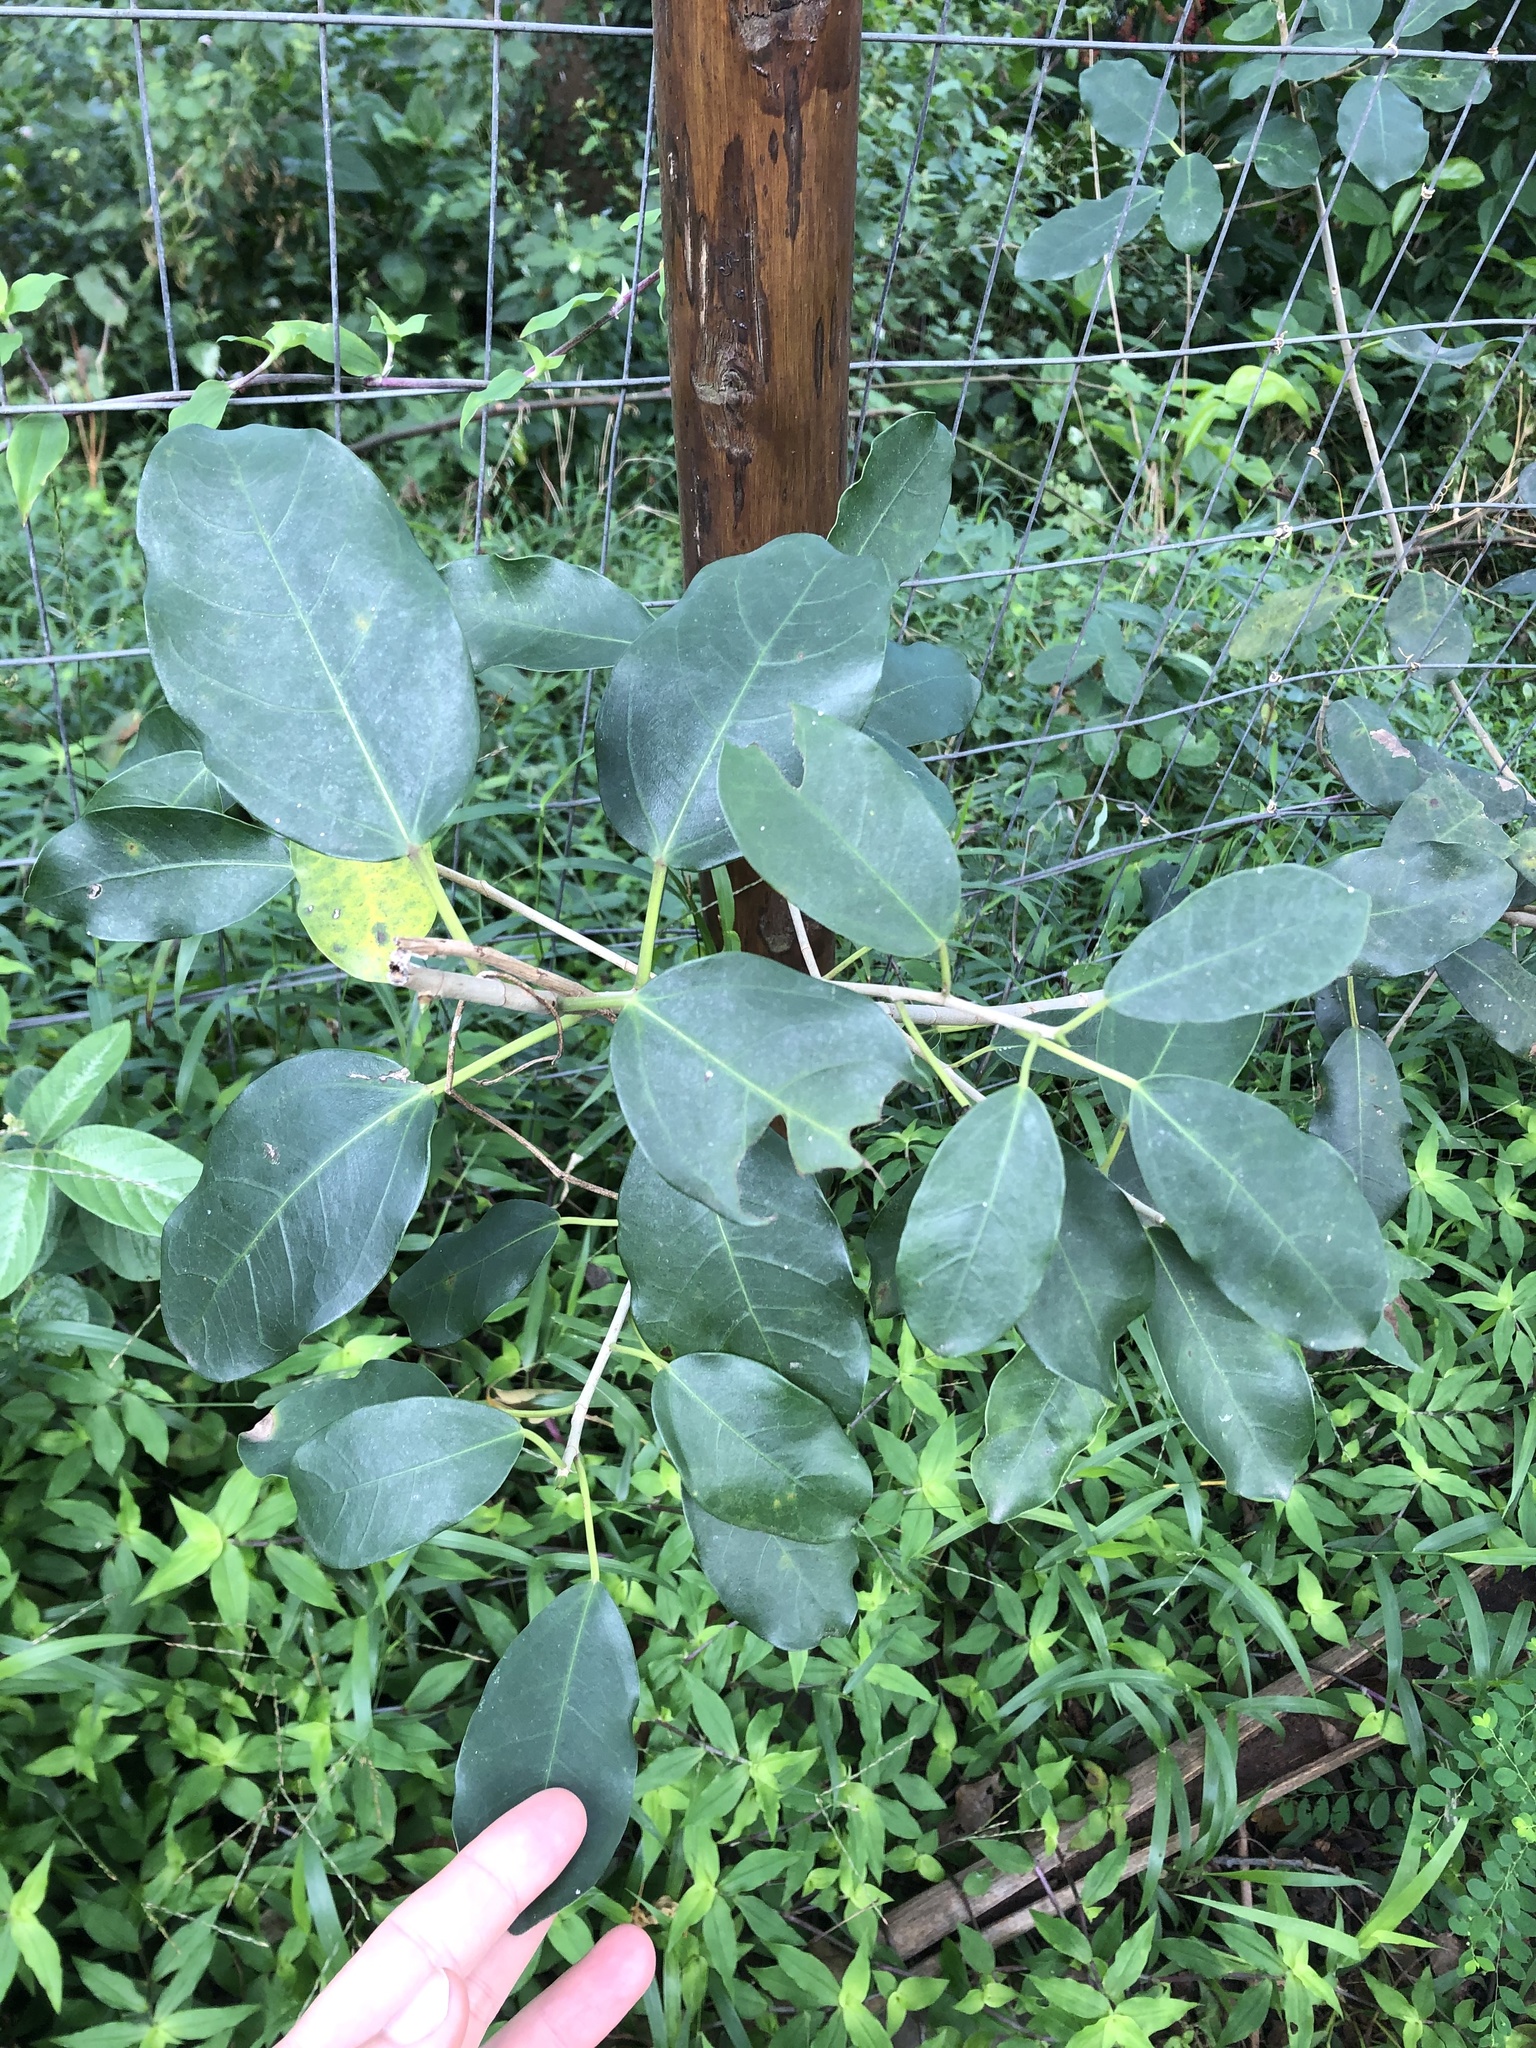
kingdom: Plantae
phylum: Tracheophyta
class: Magnoliopsida
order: Rosales
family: Moraceae
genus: Ficus
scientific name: Ficus thonningii
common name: Fig
